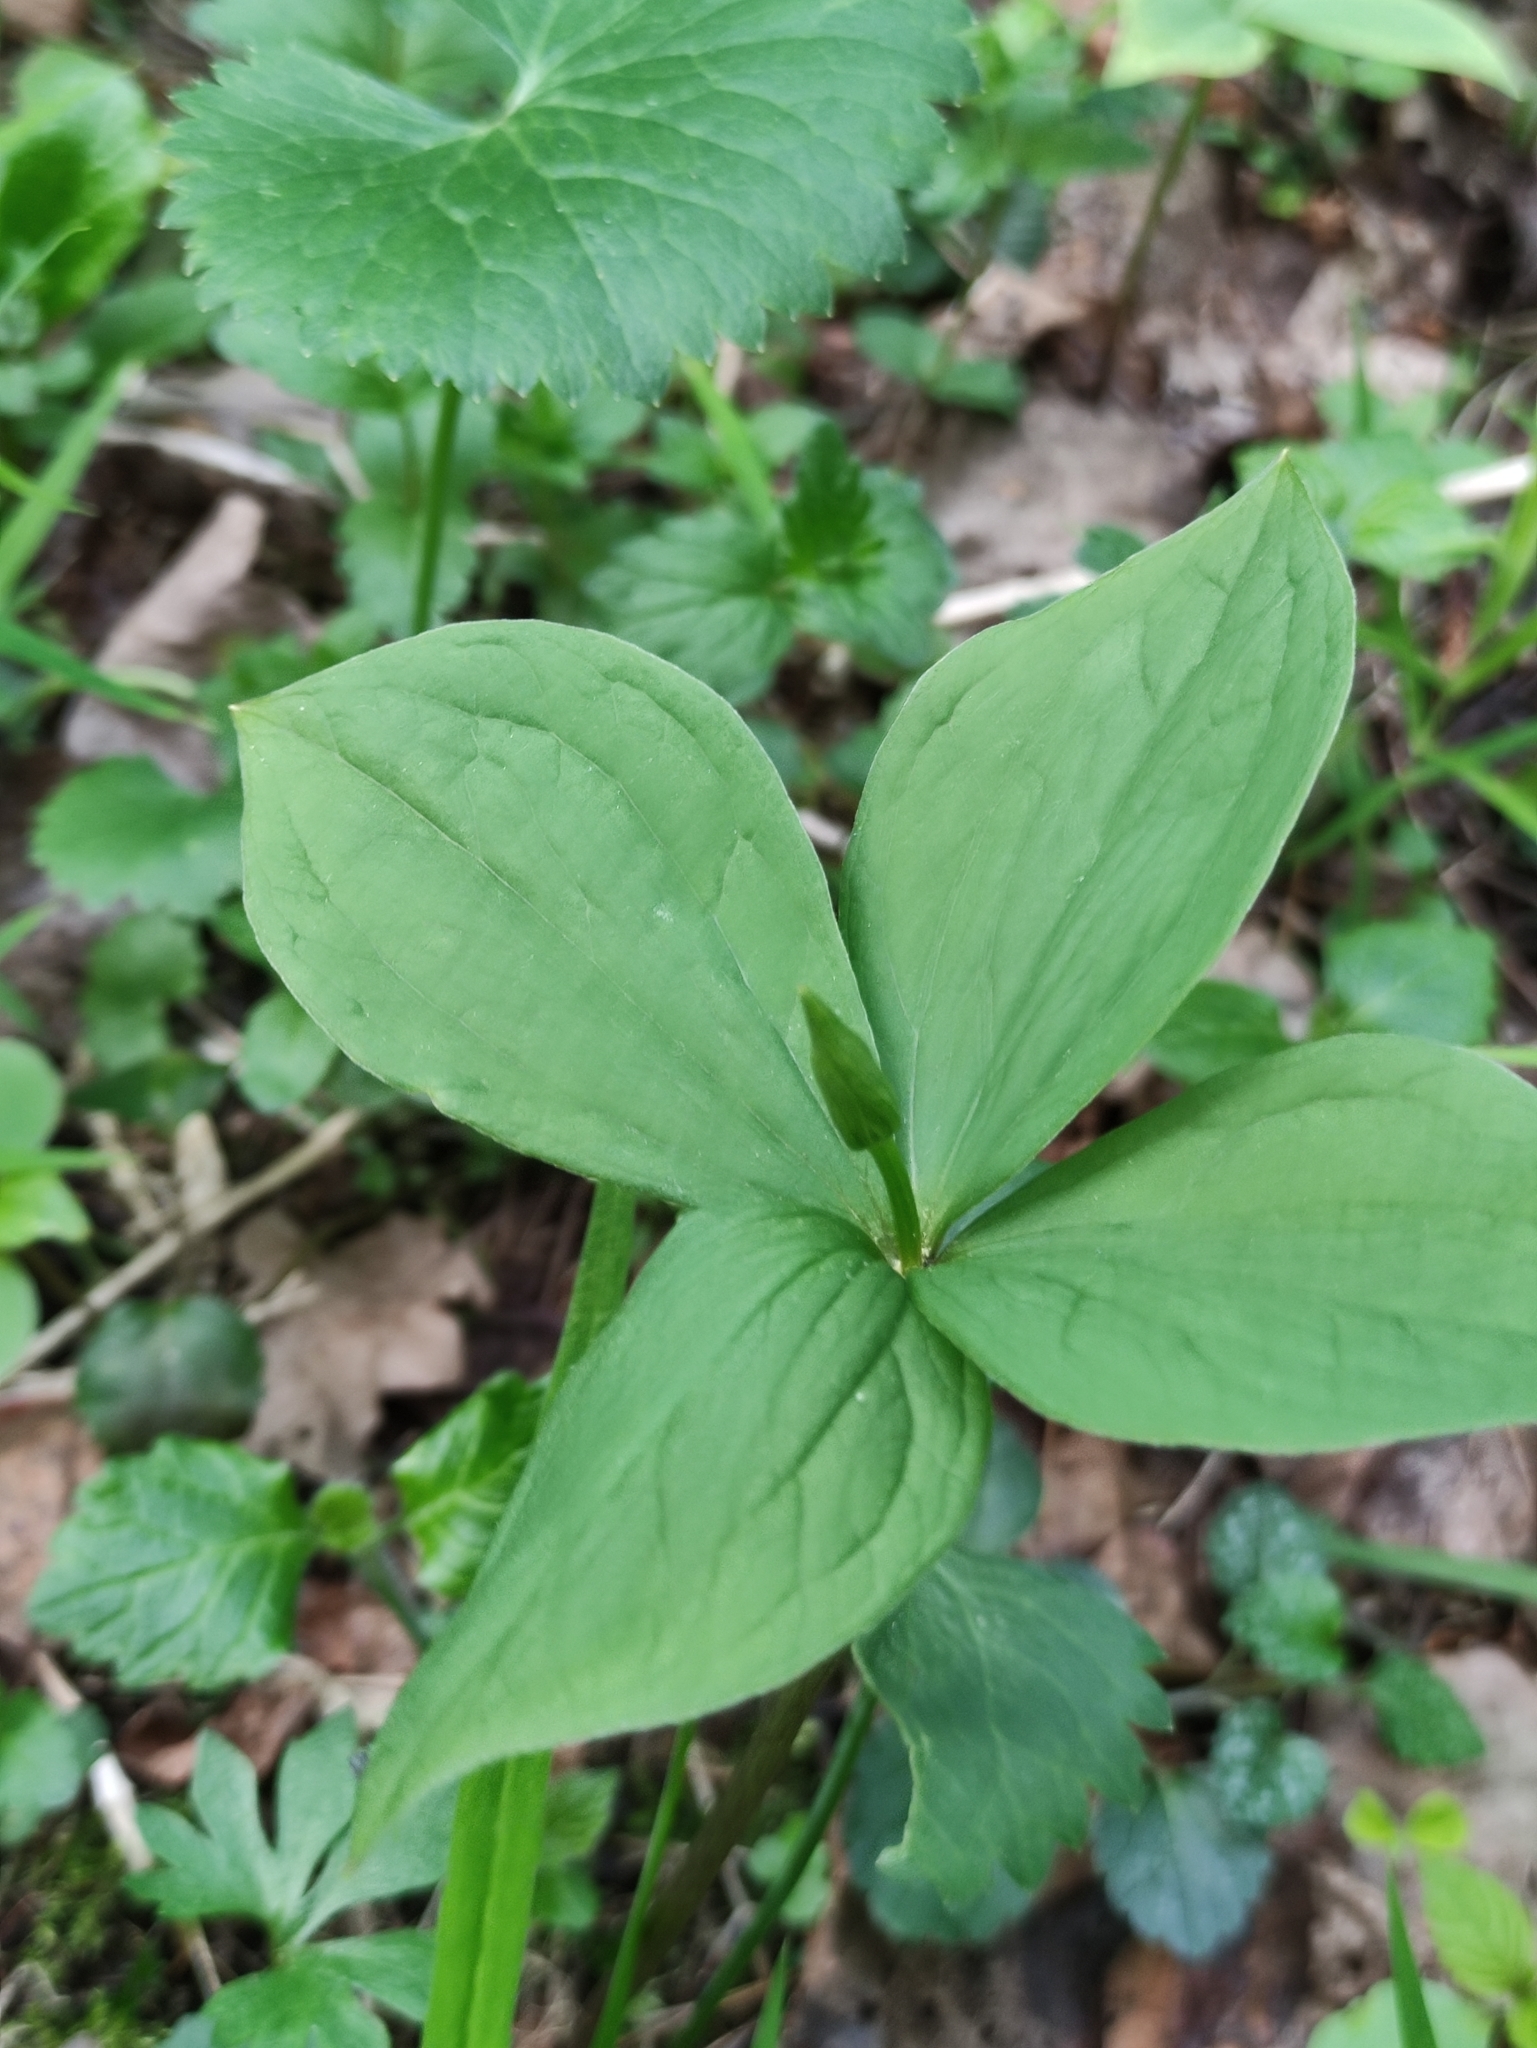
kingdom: Plantae
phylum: Tracheophyta
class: Liliopsida
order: Liliales
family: Melanthiaceae
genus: Paris
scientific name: Paris quadrifolia
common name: Herb-paris
